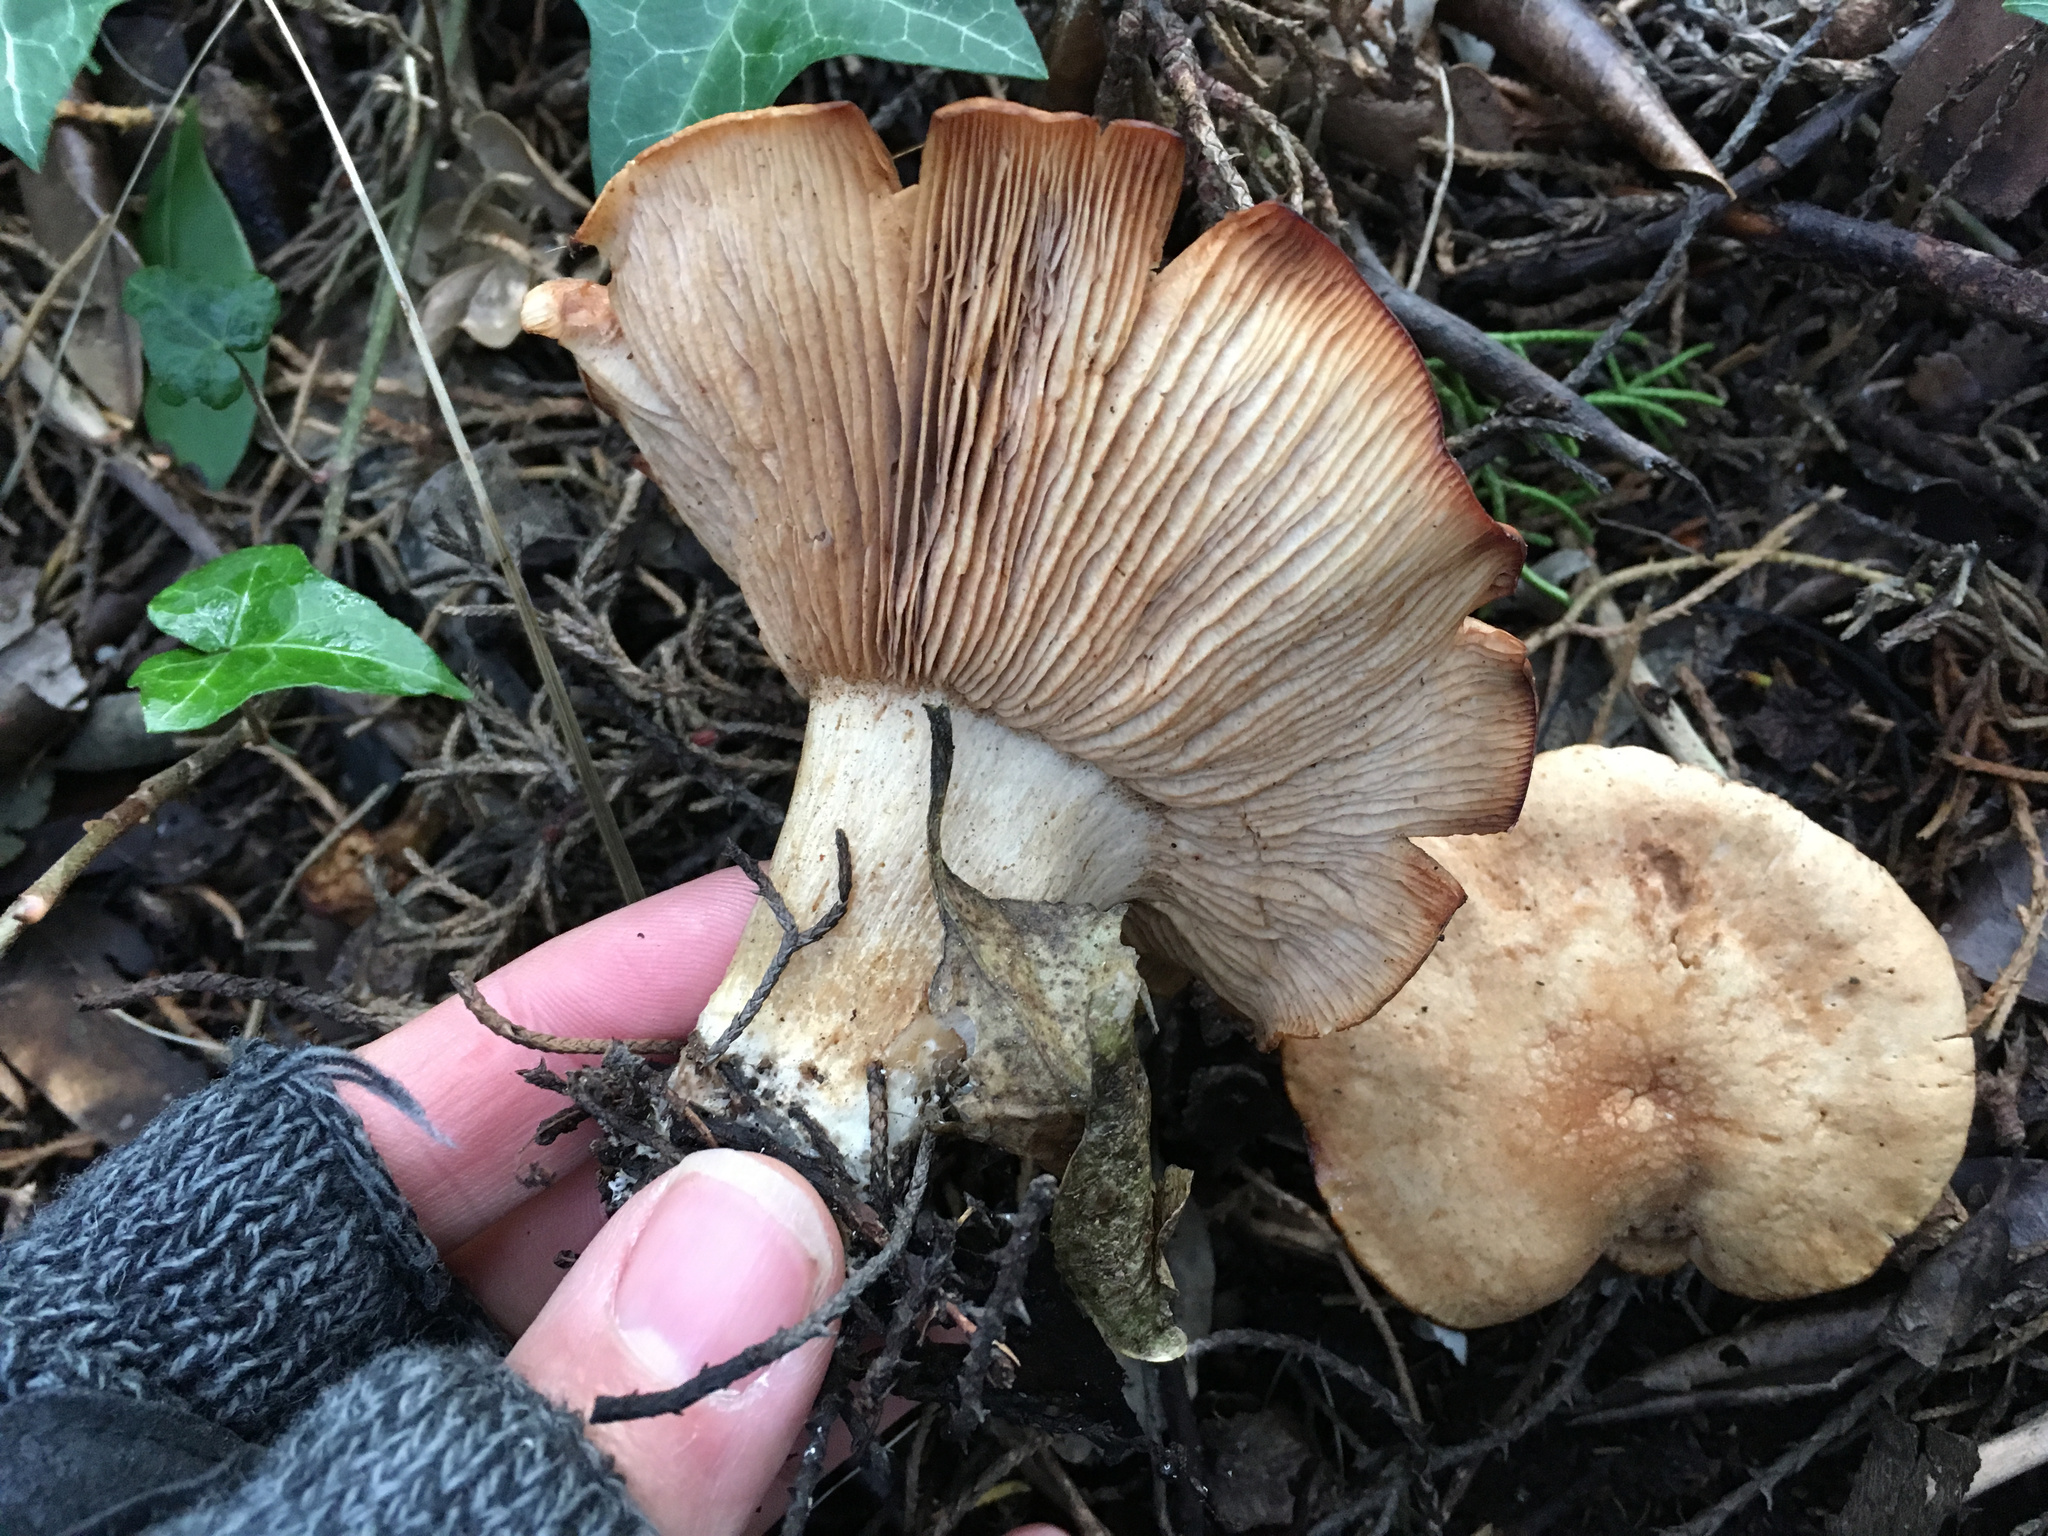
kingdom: Fungi
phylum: Basidiomycota
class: Agaricomycetes
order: Agaricales
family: Entolomataceae
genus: Clitopilus
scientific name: Clitopilus piperitus
